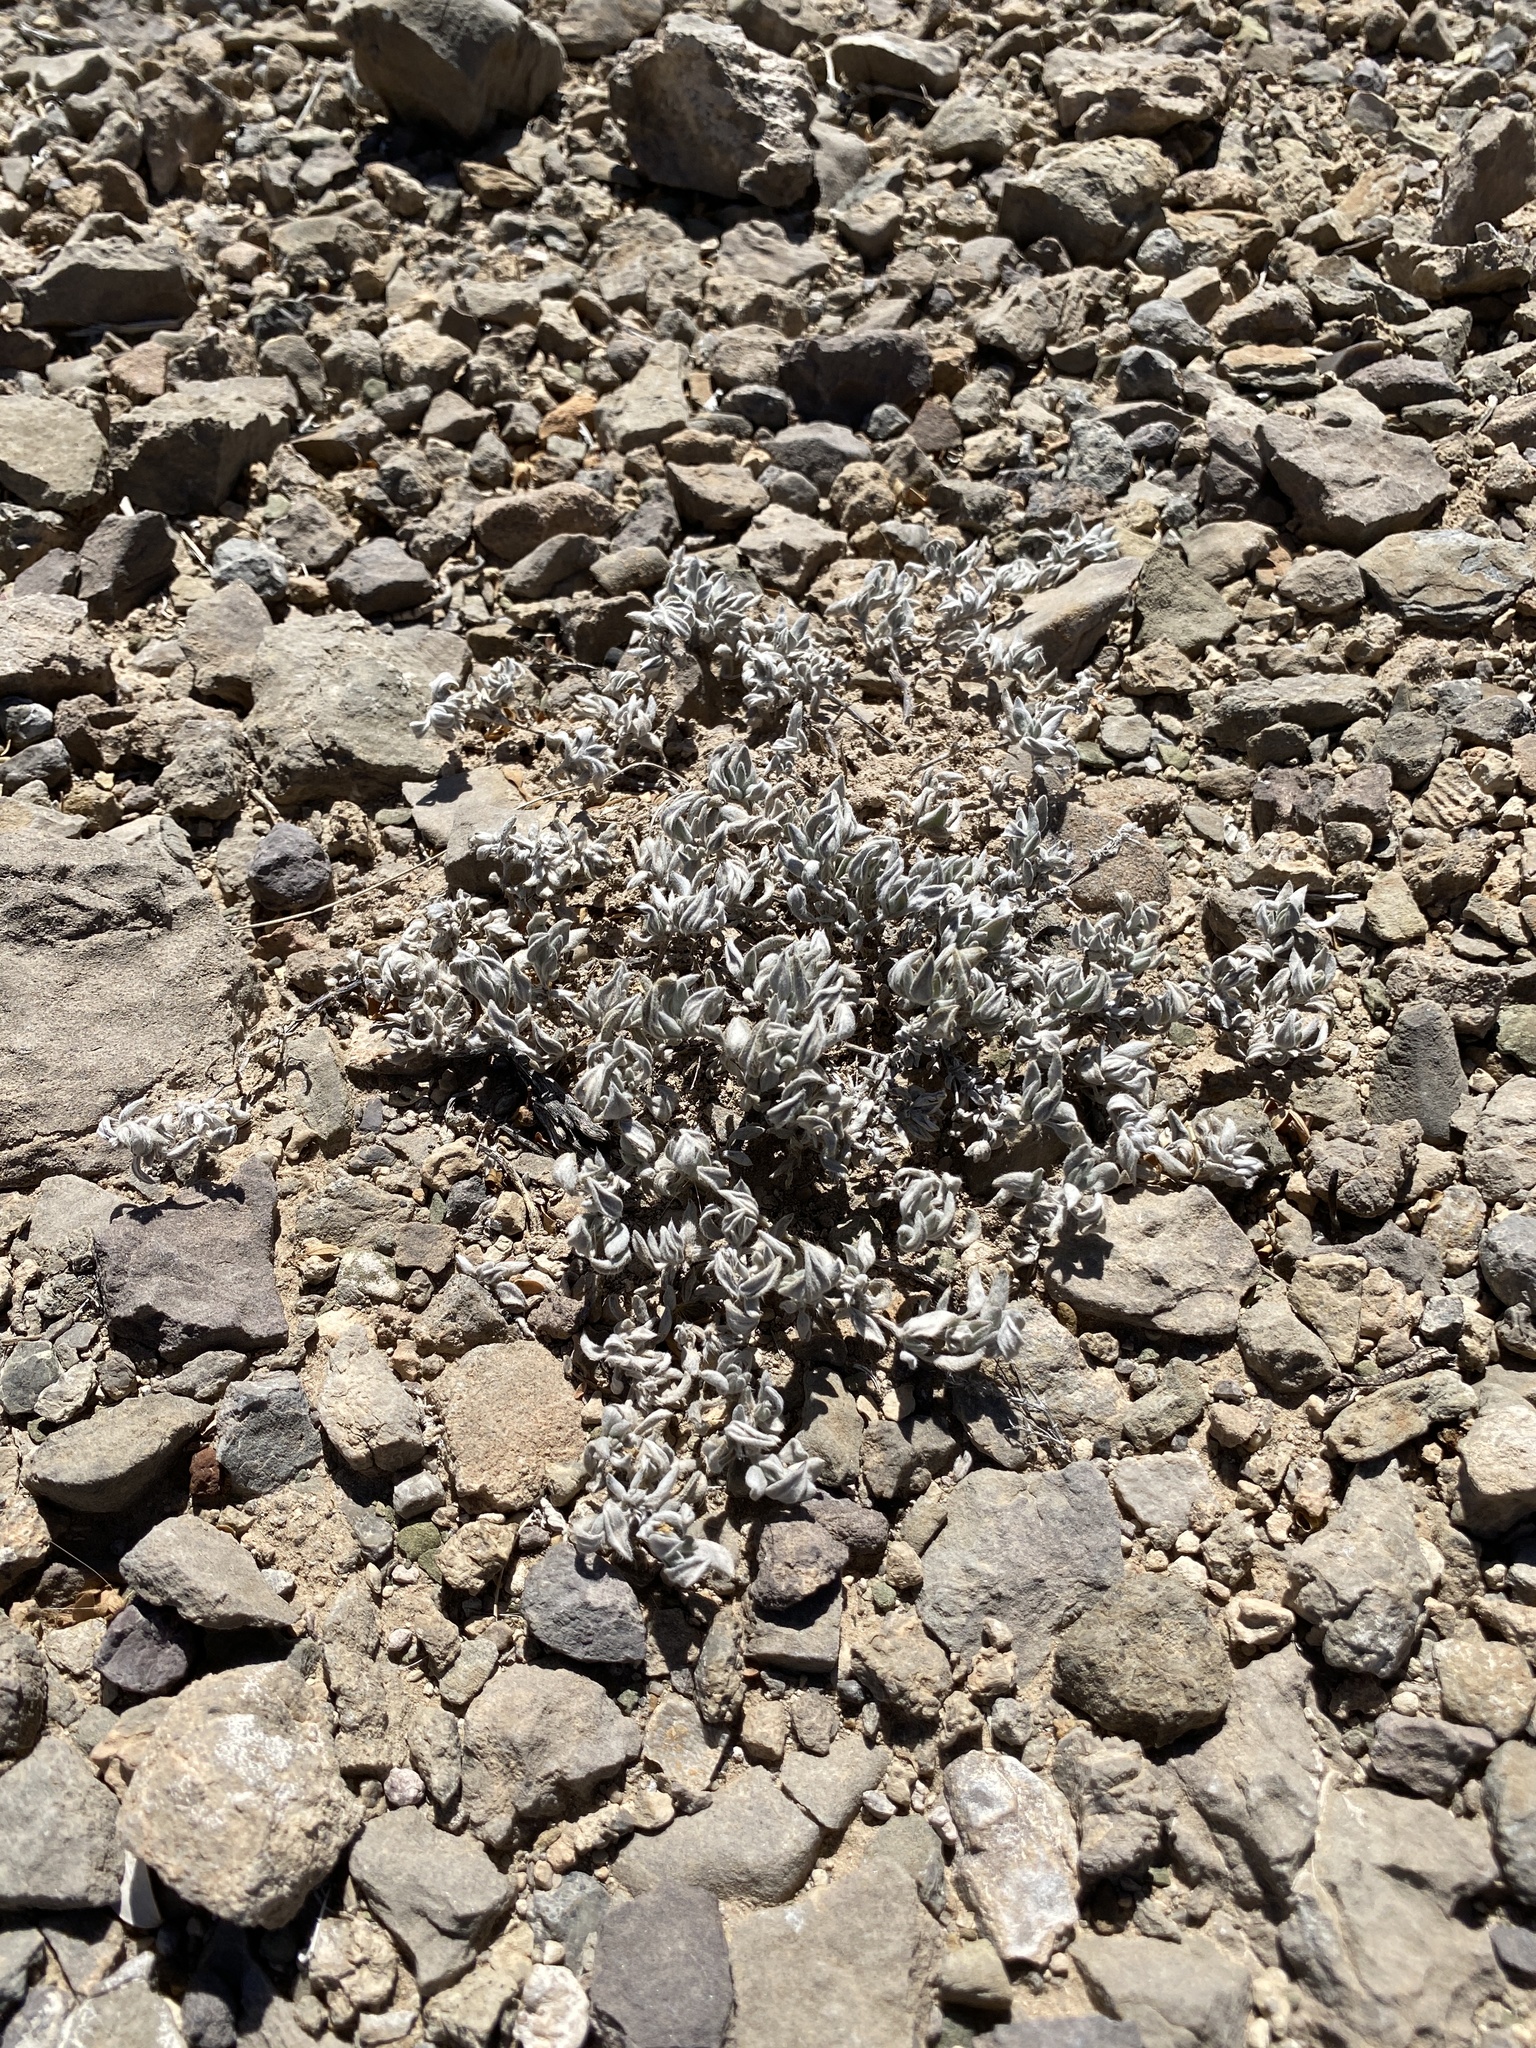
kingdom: Plantae
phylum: Tracheophyta
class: Magnoliopsida
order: Boraginales
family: Ehretiaceae
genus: Tiquilia
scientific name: Tiquilia canescens
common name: Hairy tiquilia
